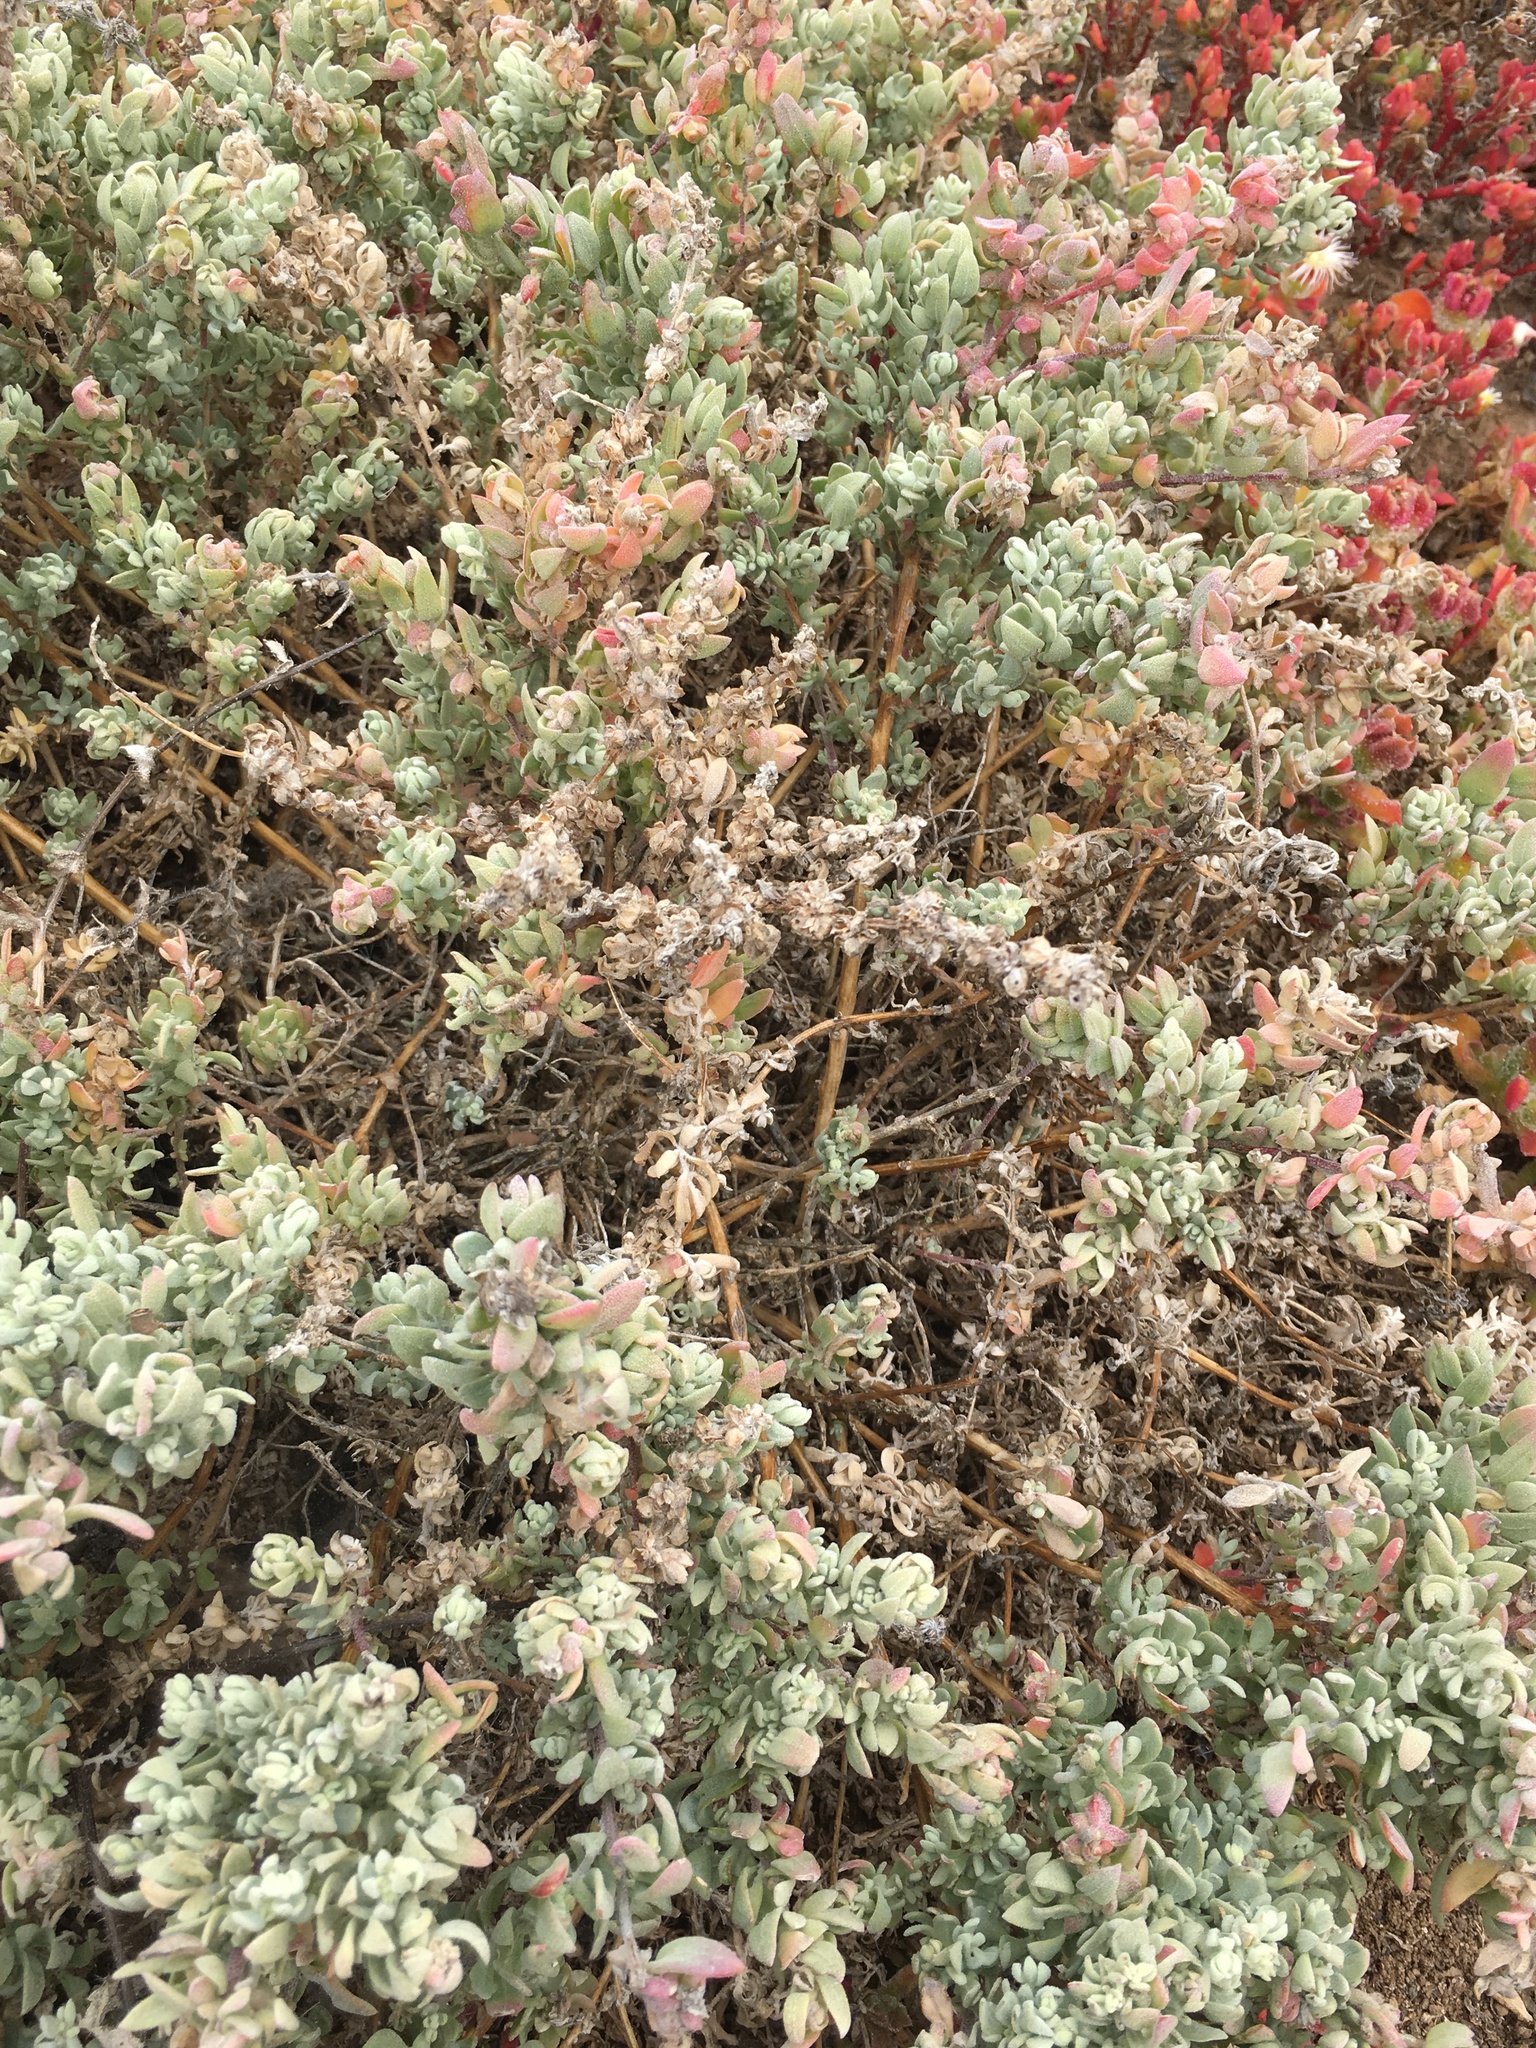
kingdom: Plantae
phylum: Tracheophyta
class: Magnoliopsida
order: Caryophyllales
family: Amaranthaceae
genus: Extriplex
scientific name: Extriplex californica
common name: California saltbush
